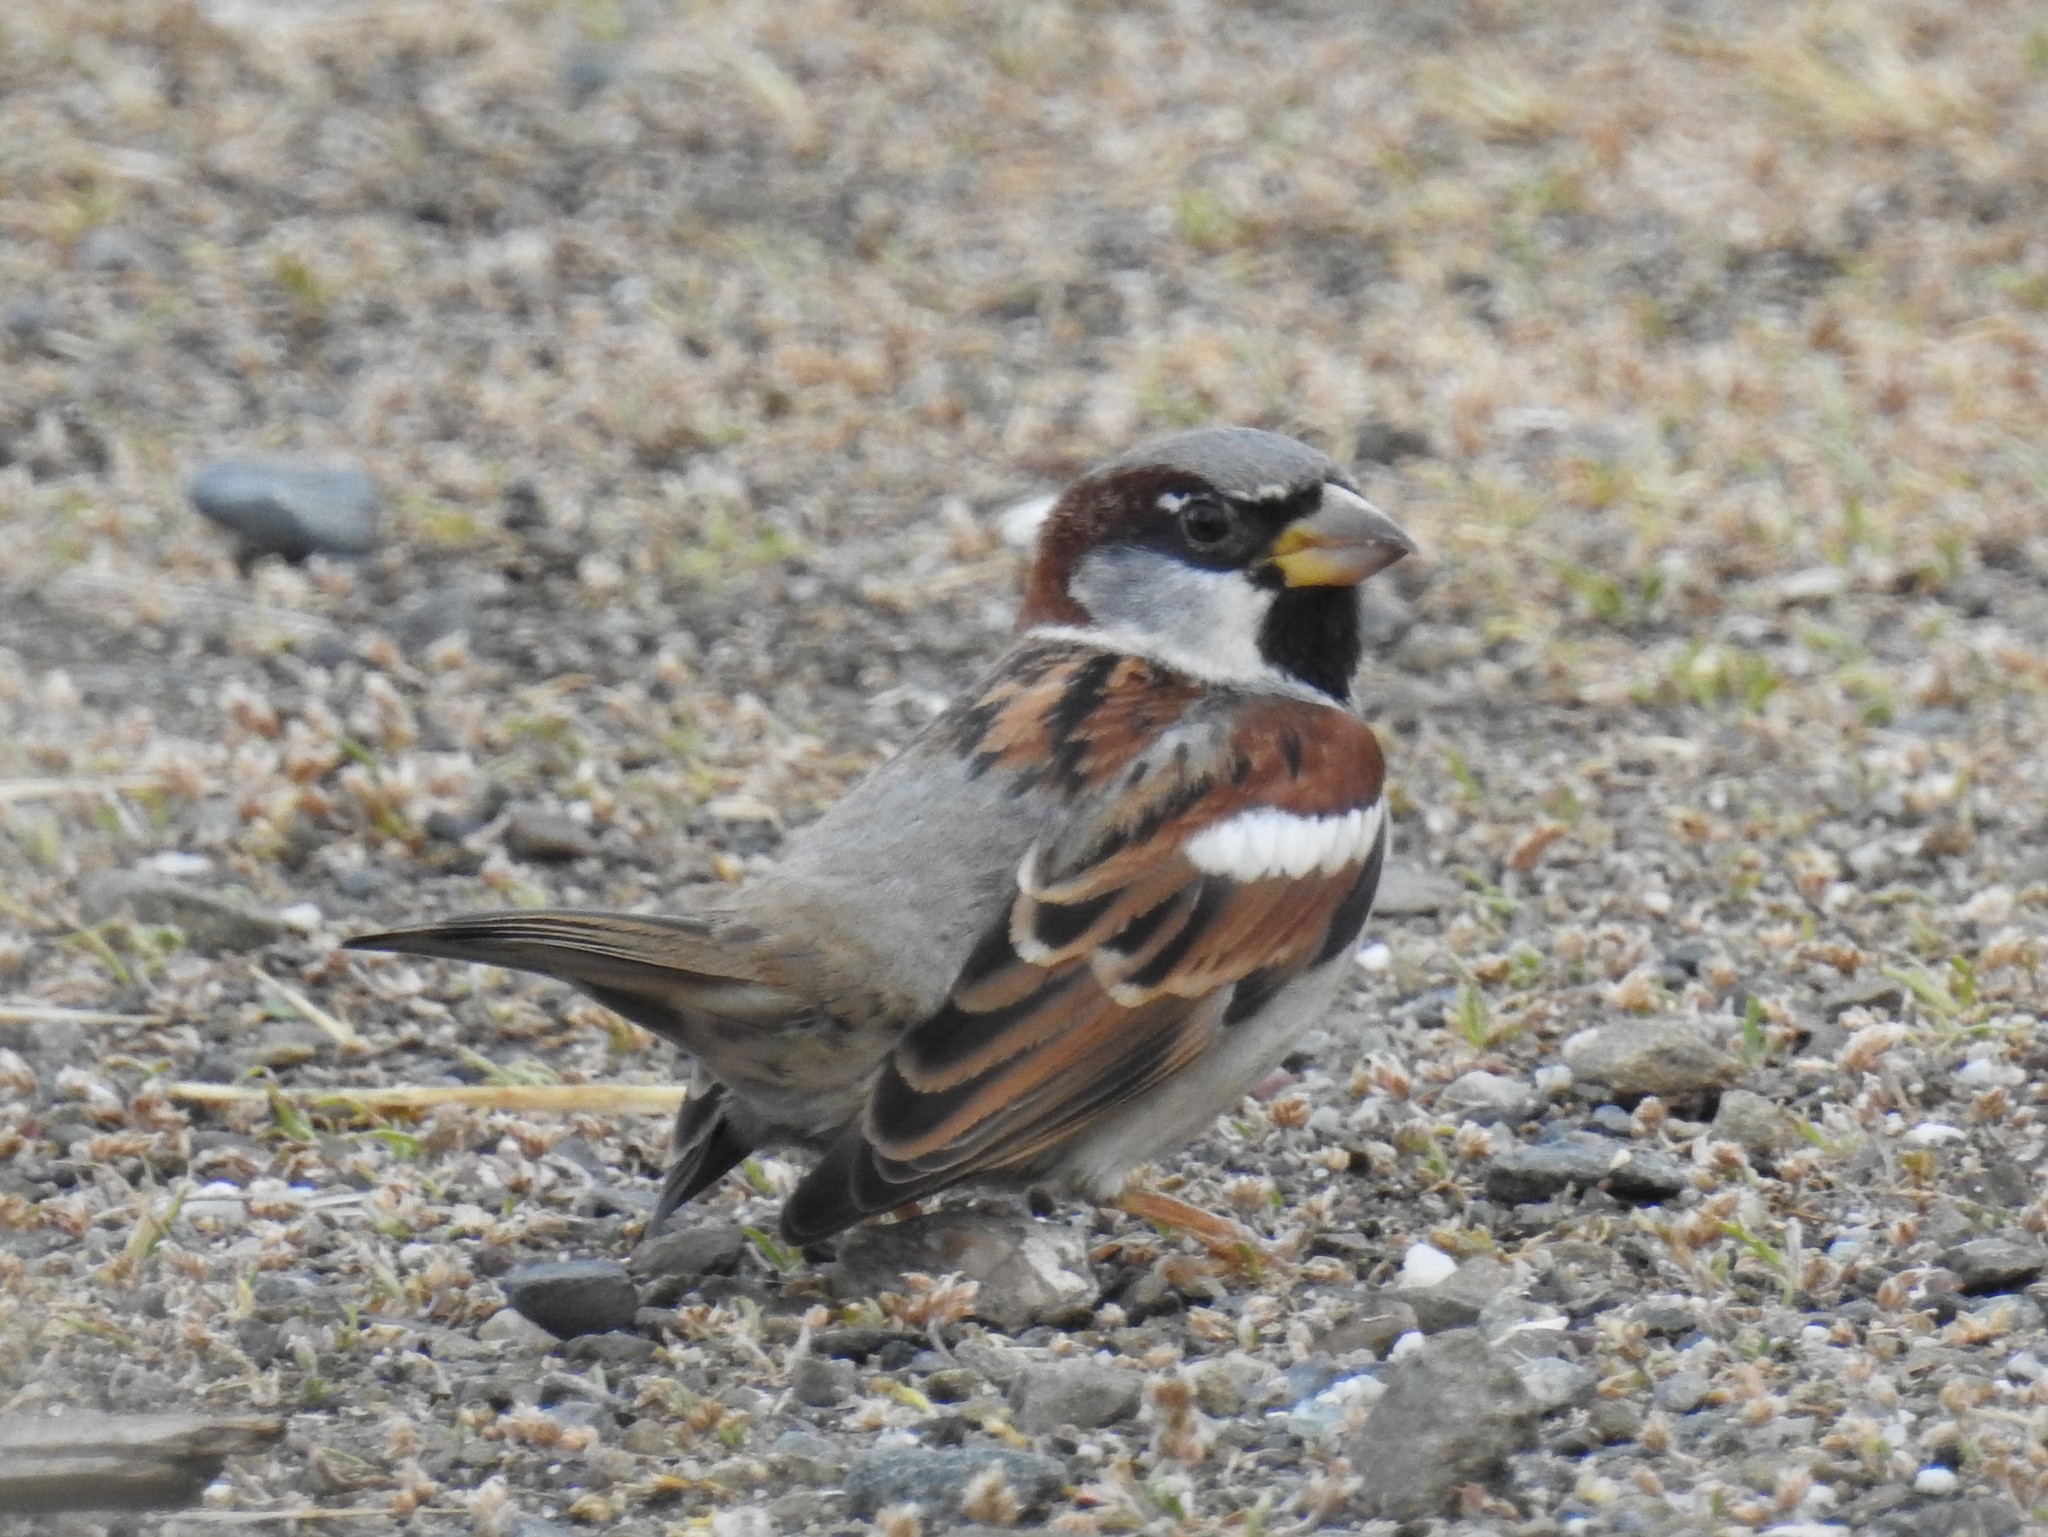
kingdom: Animalia
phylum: Chordata
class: Aves
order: Passeriformes
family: Passeridae
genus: Passer
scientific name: Passer domesticus
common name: House sparrow
